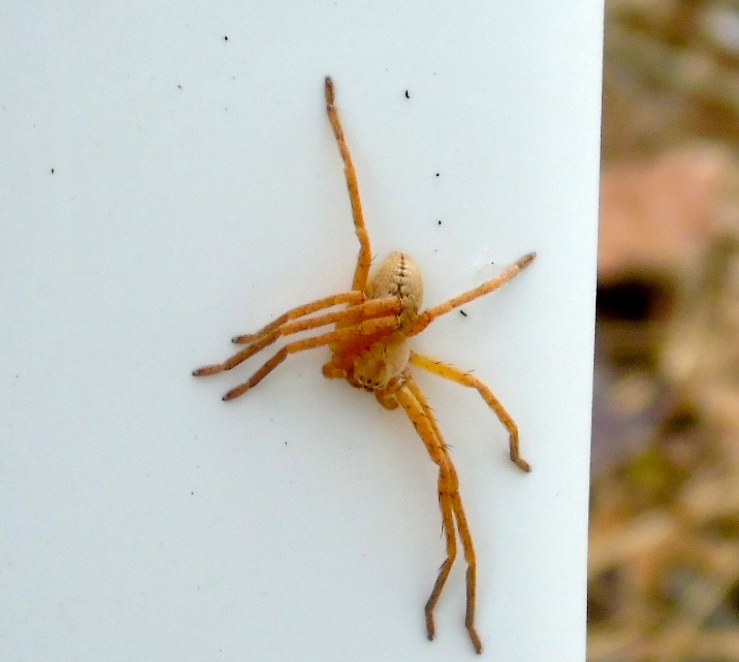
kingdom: Animalia
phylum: Arthropoda
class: Arachnida
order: Araneae
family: Sparassidae
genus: Curicaberis
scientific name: Curicaberis culiacan
